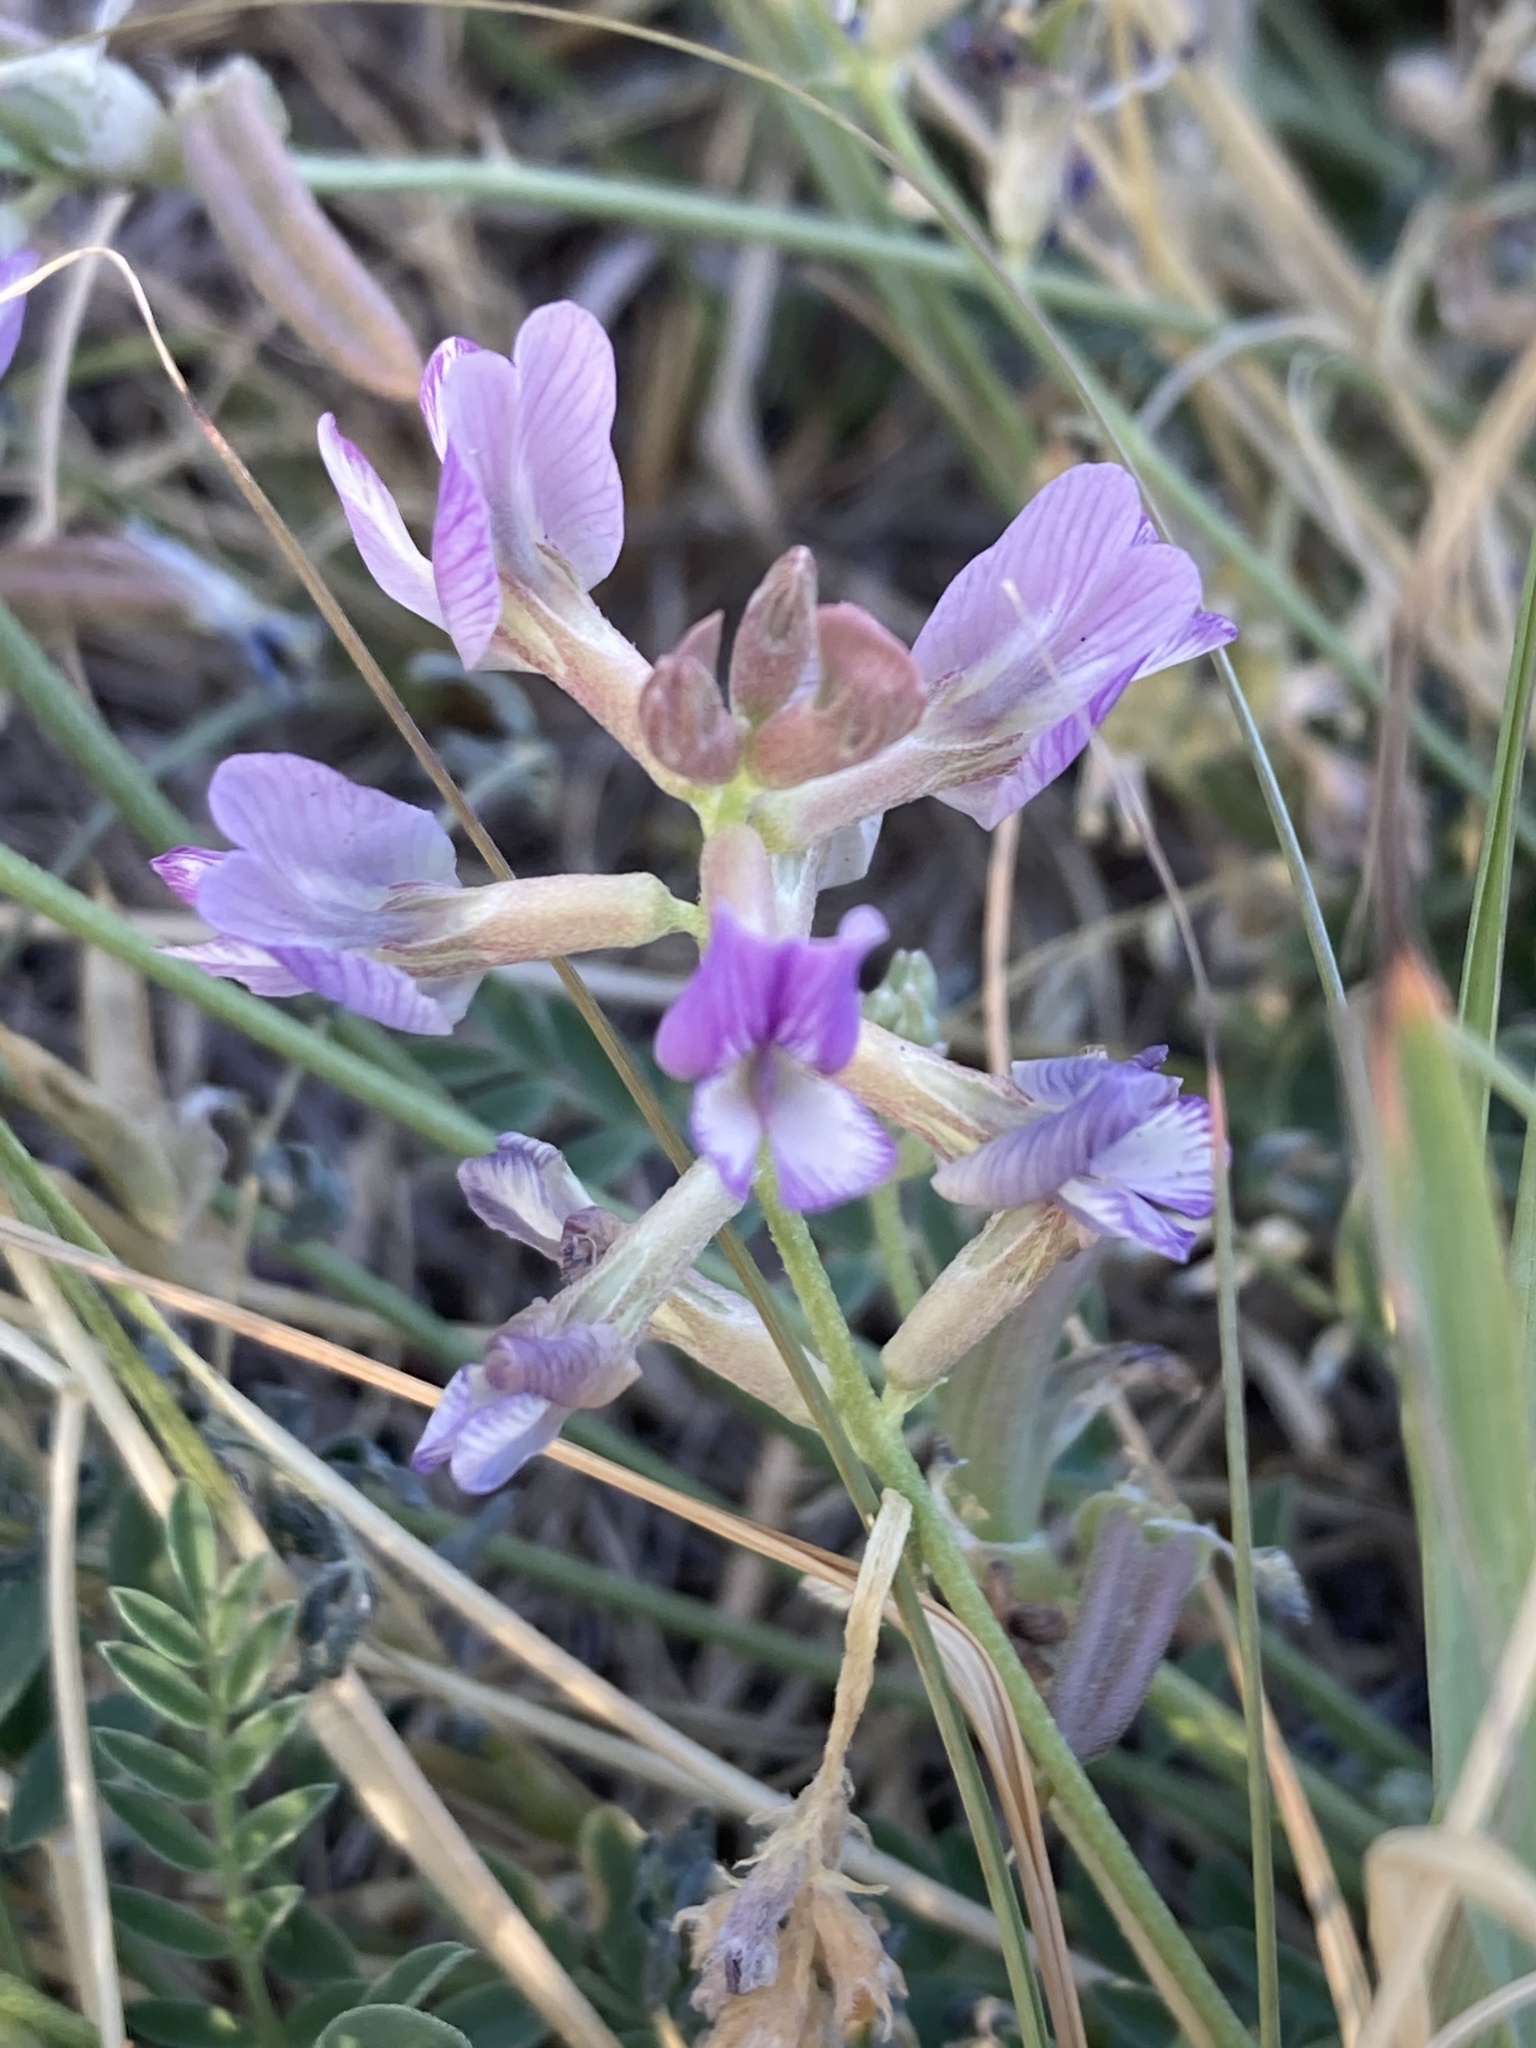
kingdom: Plantae
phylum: Tracheophyta
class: Magnoliopsida
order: Fabales
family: Fabaceae
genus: Astragalus
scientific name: Astragalus nothoxys
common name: Beaked milk-vetch
